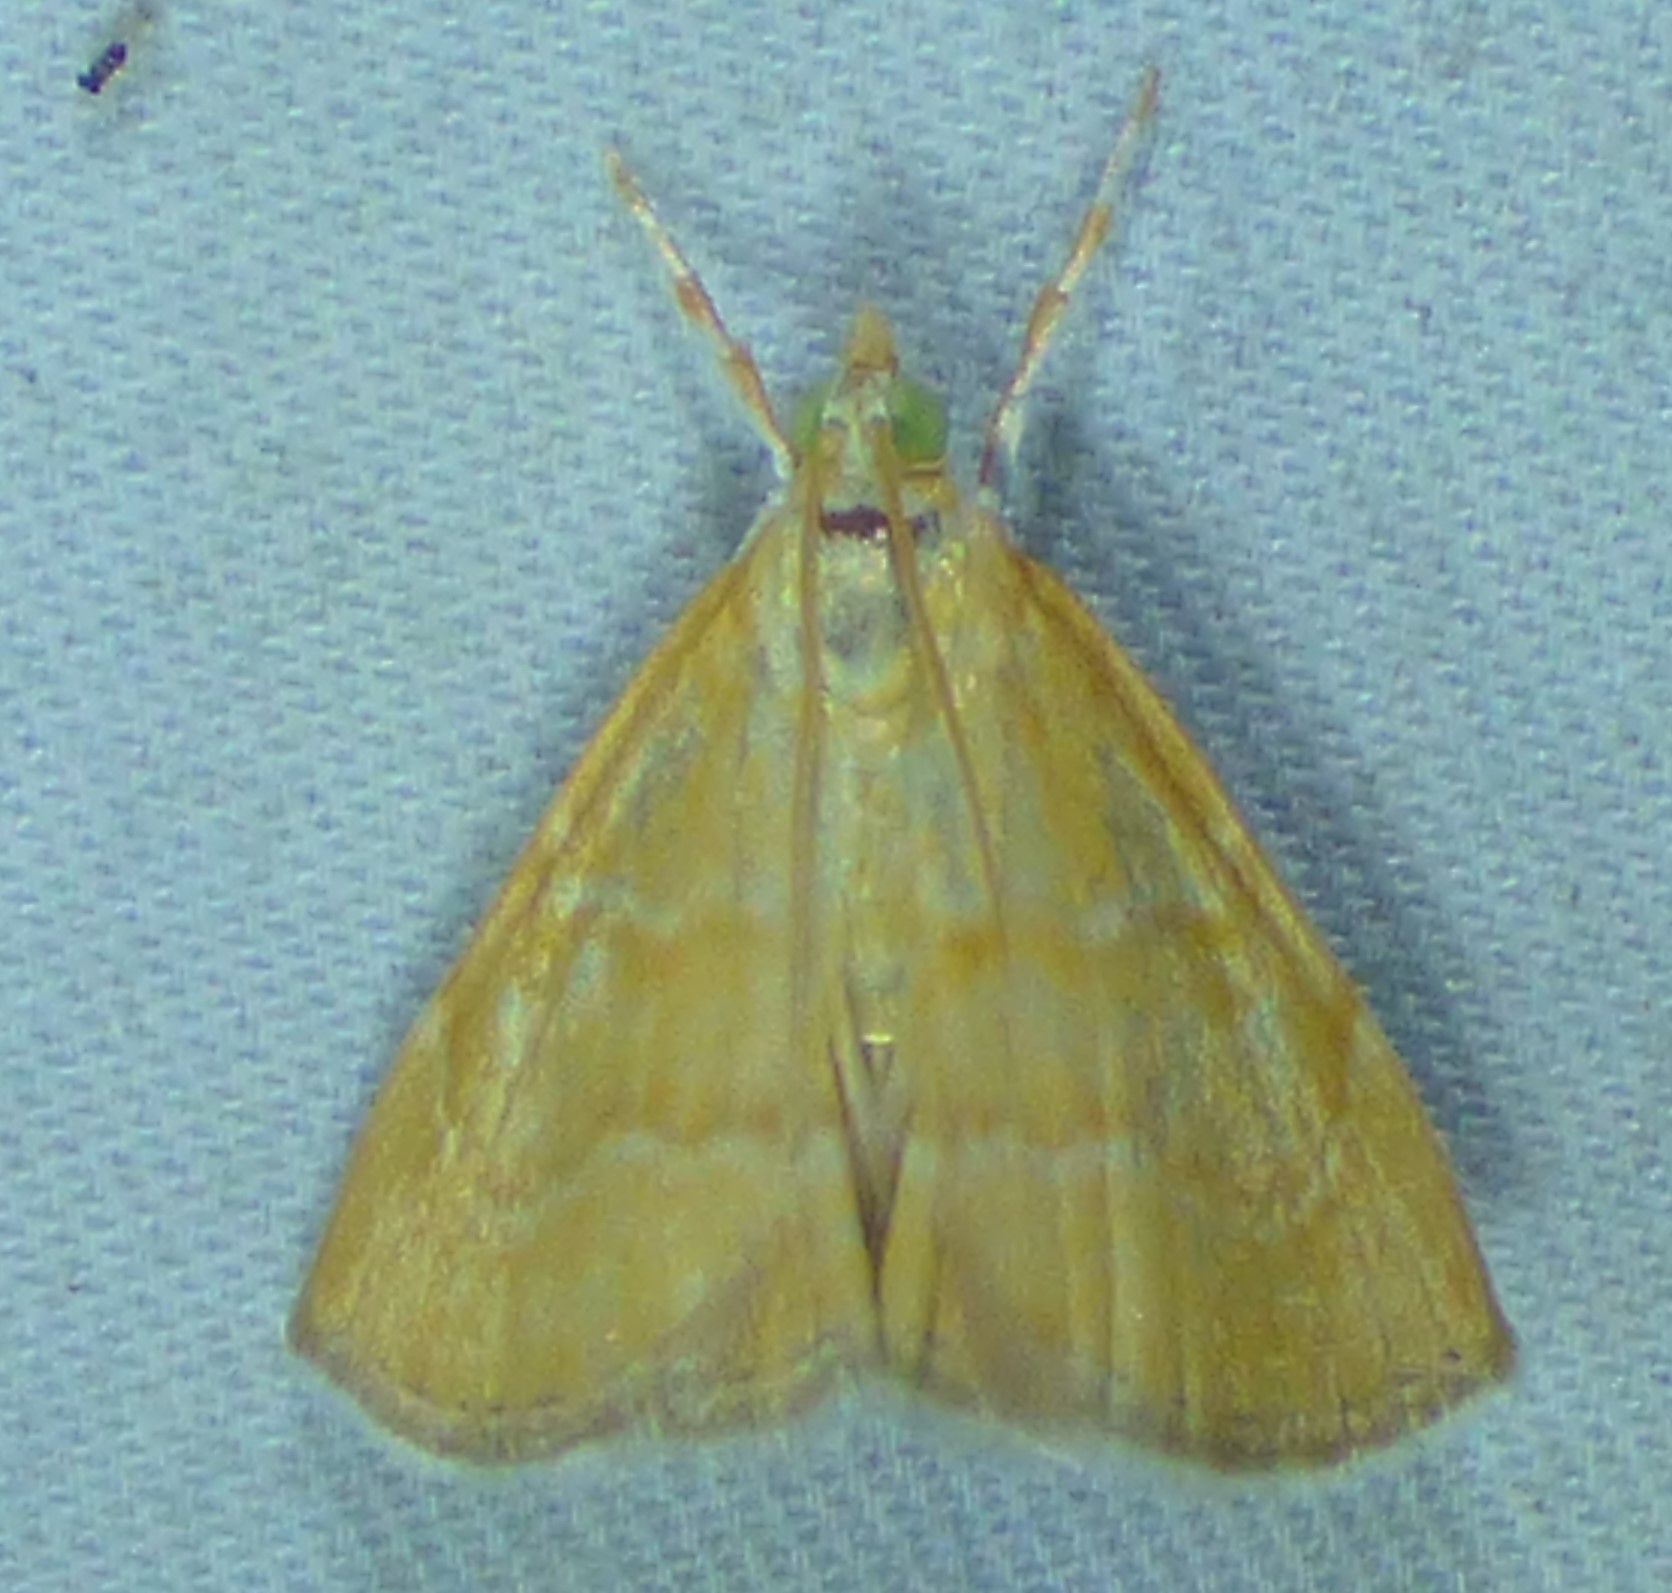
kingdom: Animalia
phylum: Arthropoda
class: Insecta
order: Lepidoptera
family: Crambidae
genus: Glaphyria
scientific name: Glaphyria invisalis
